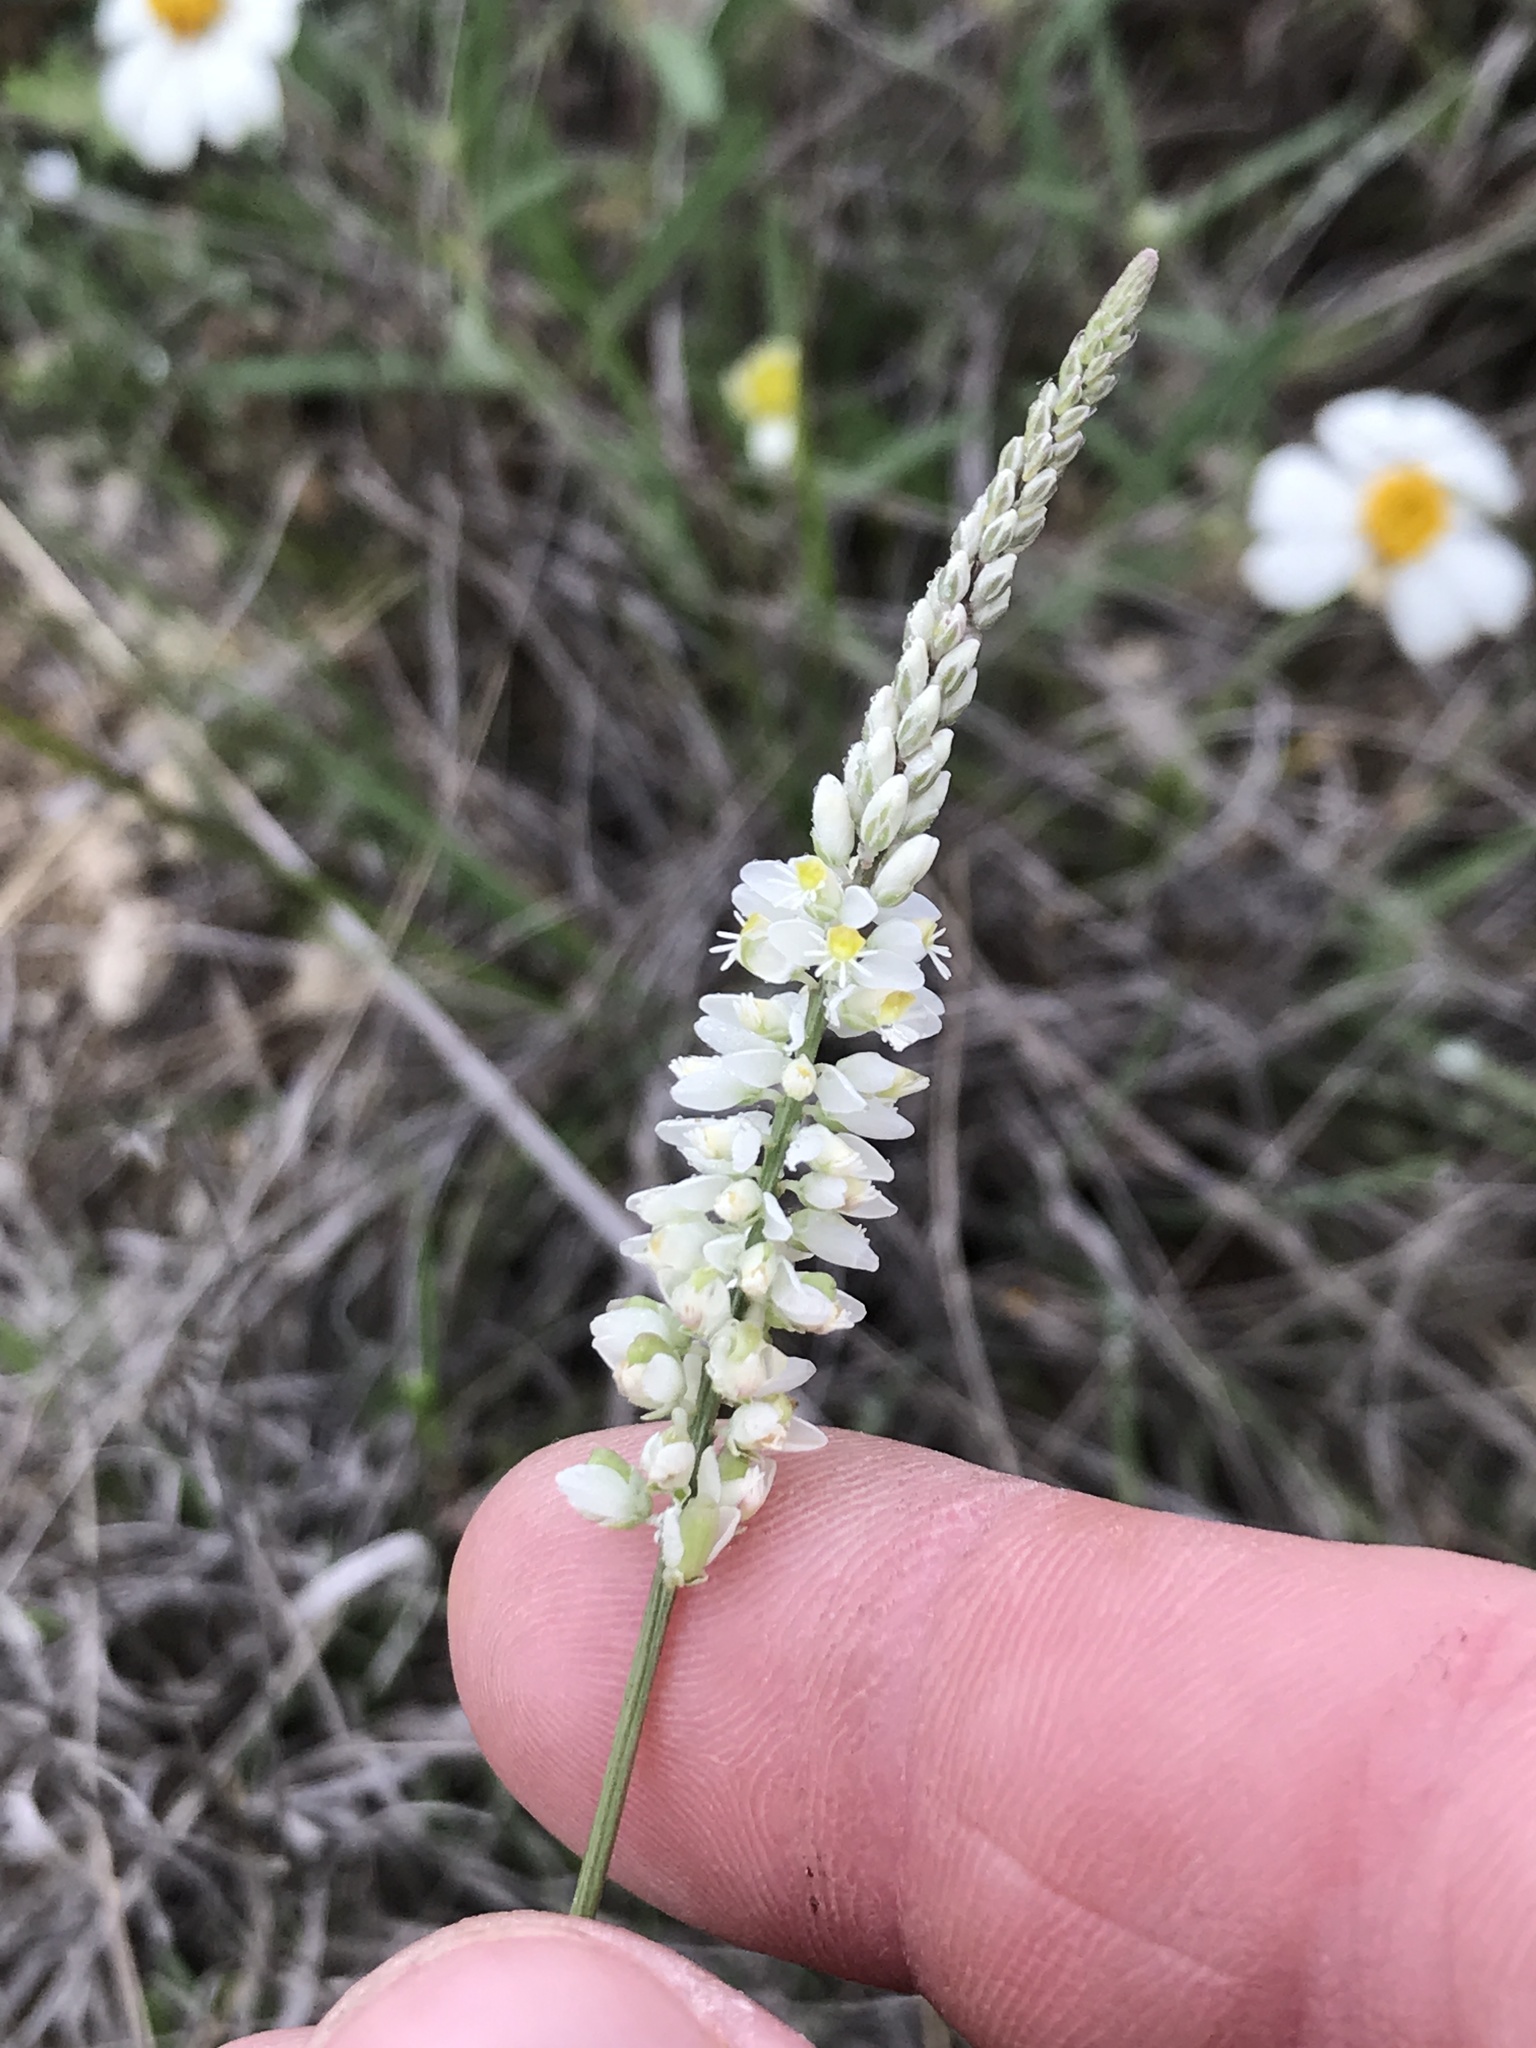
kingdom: Plantae
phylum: Tracheophyta
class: Magnoliopsida
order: Fabales
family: Polygalaceae
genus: Polygala
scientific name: Polygala alba
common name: White milkwort
